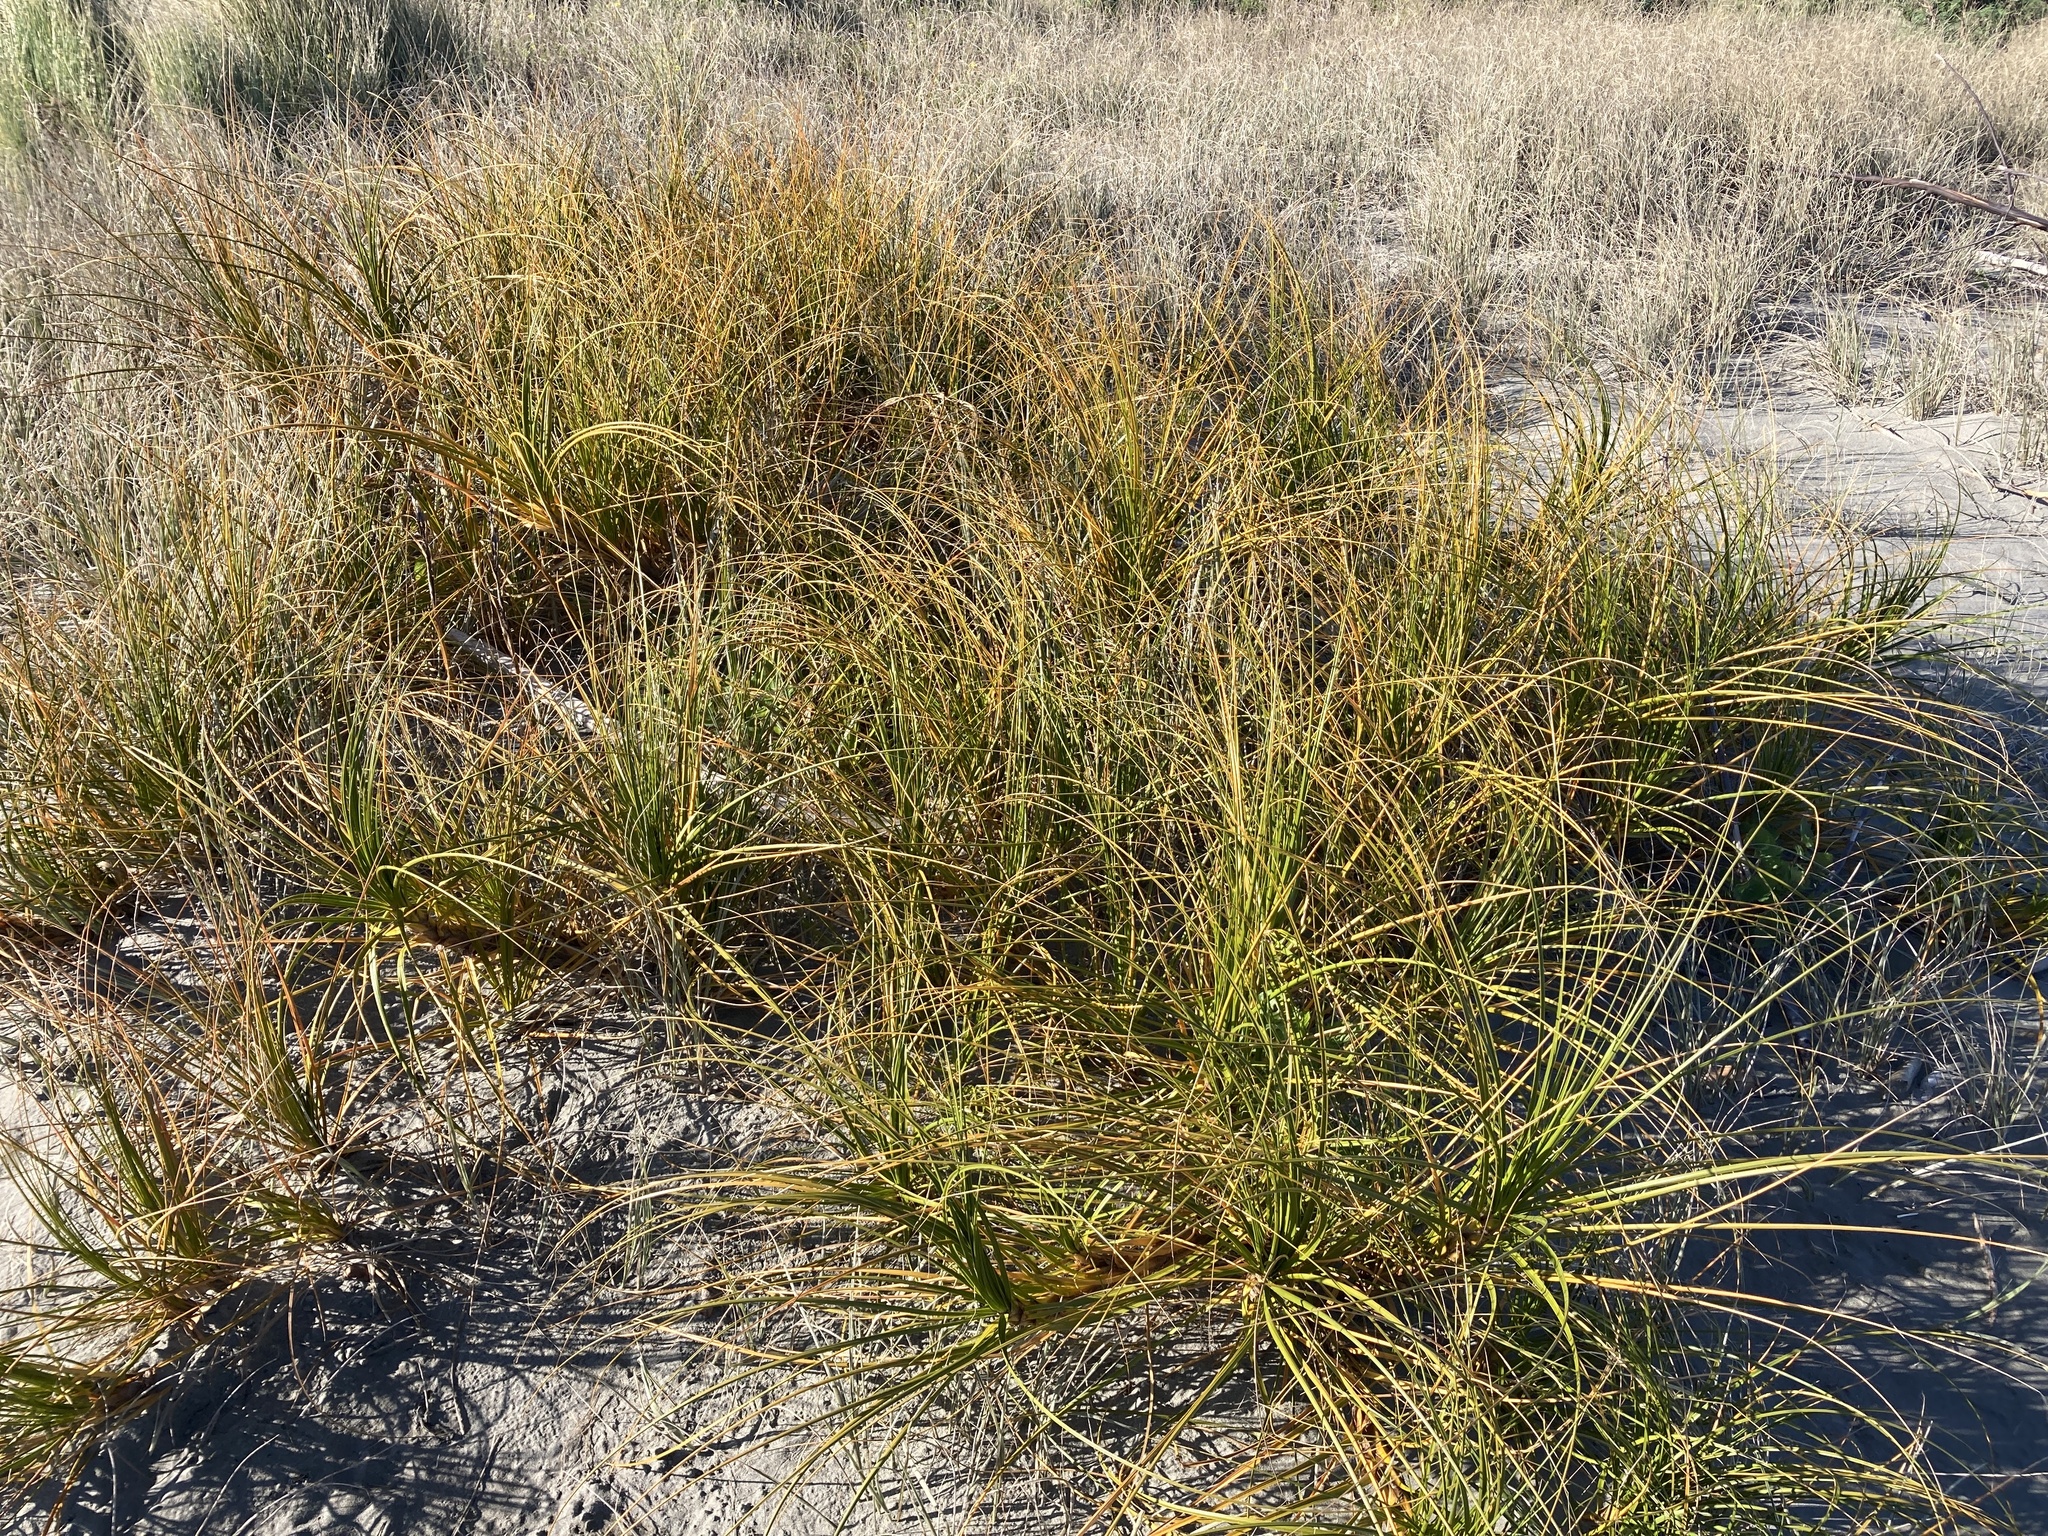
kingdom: Plantae
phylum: Tracheophyta
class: Liliopsida
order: Poales
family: Cyperaceae
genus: Ficinia
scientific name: Ficinia spiralis
